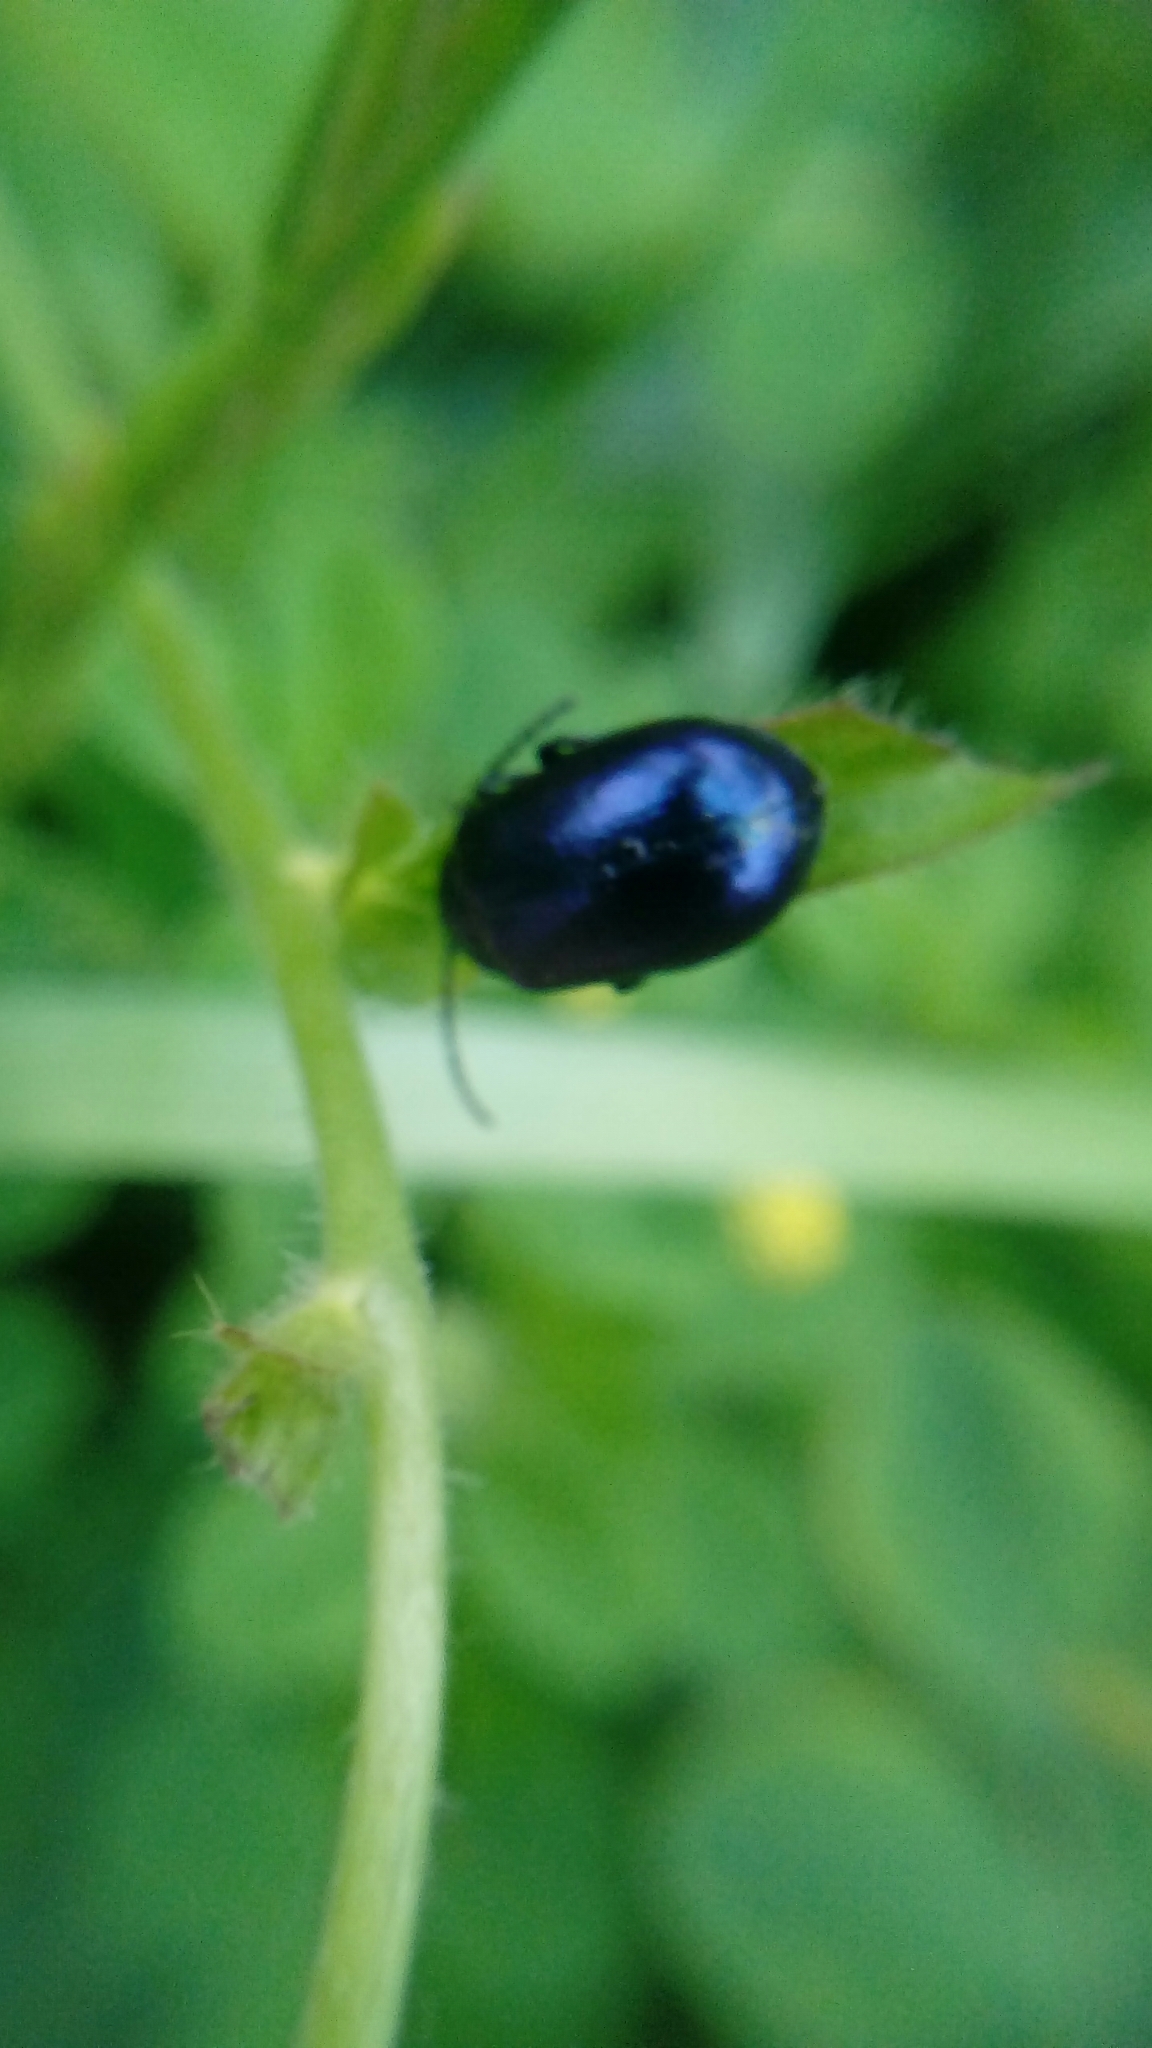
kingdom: Animalia
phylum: Arthropoda
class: Insecta
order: Coleoptera
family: Chrysomelidae
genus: Agelastica
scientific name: Agelastica alni
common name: Alder leaf beetle
